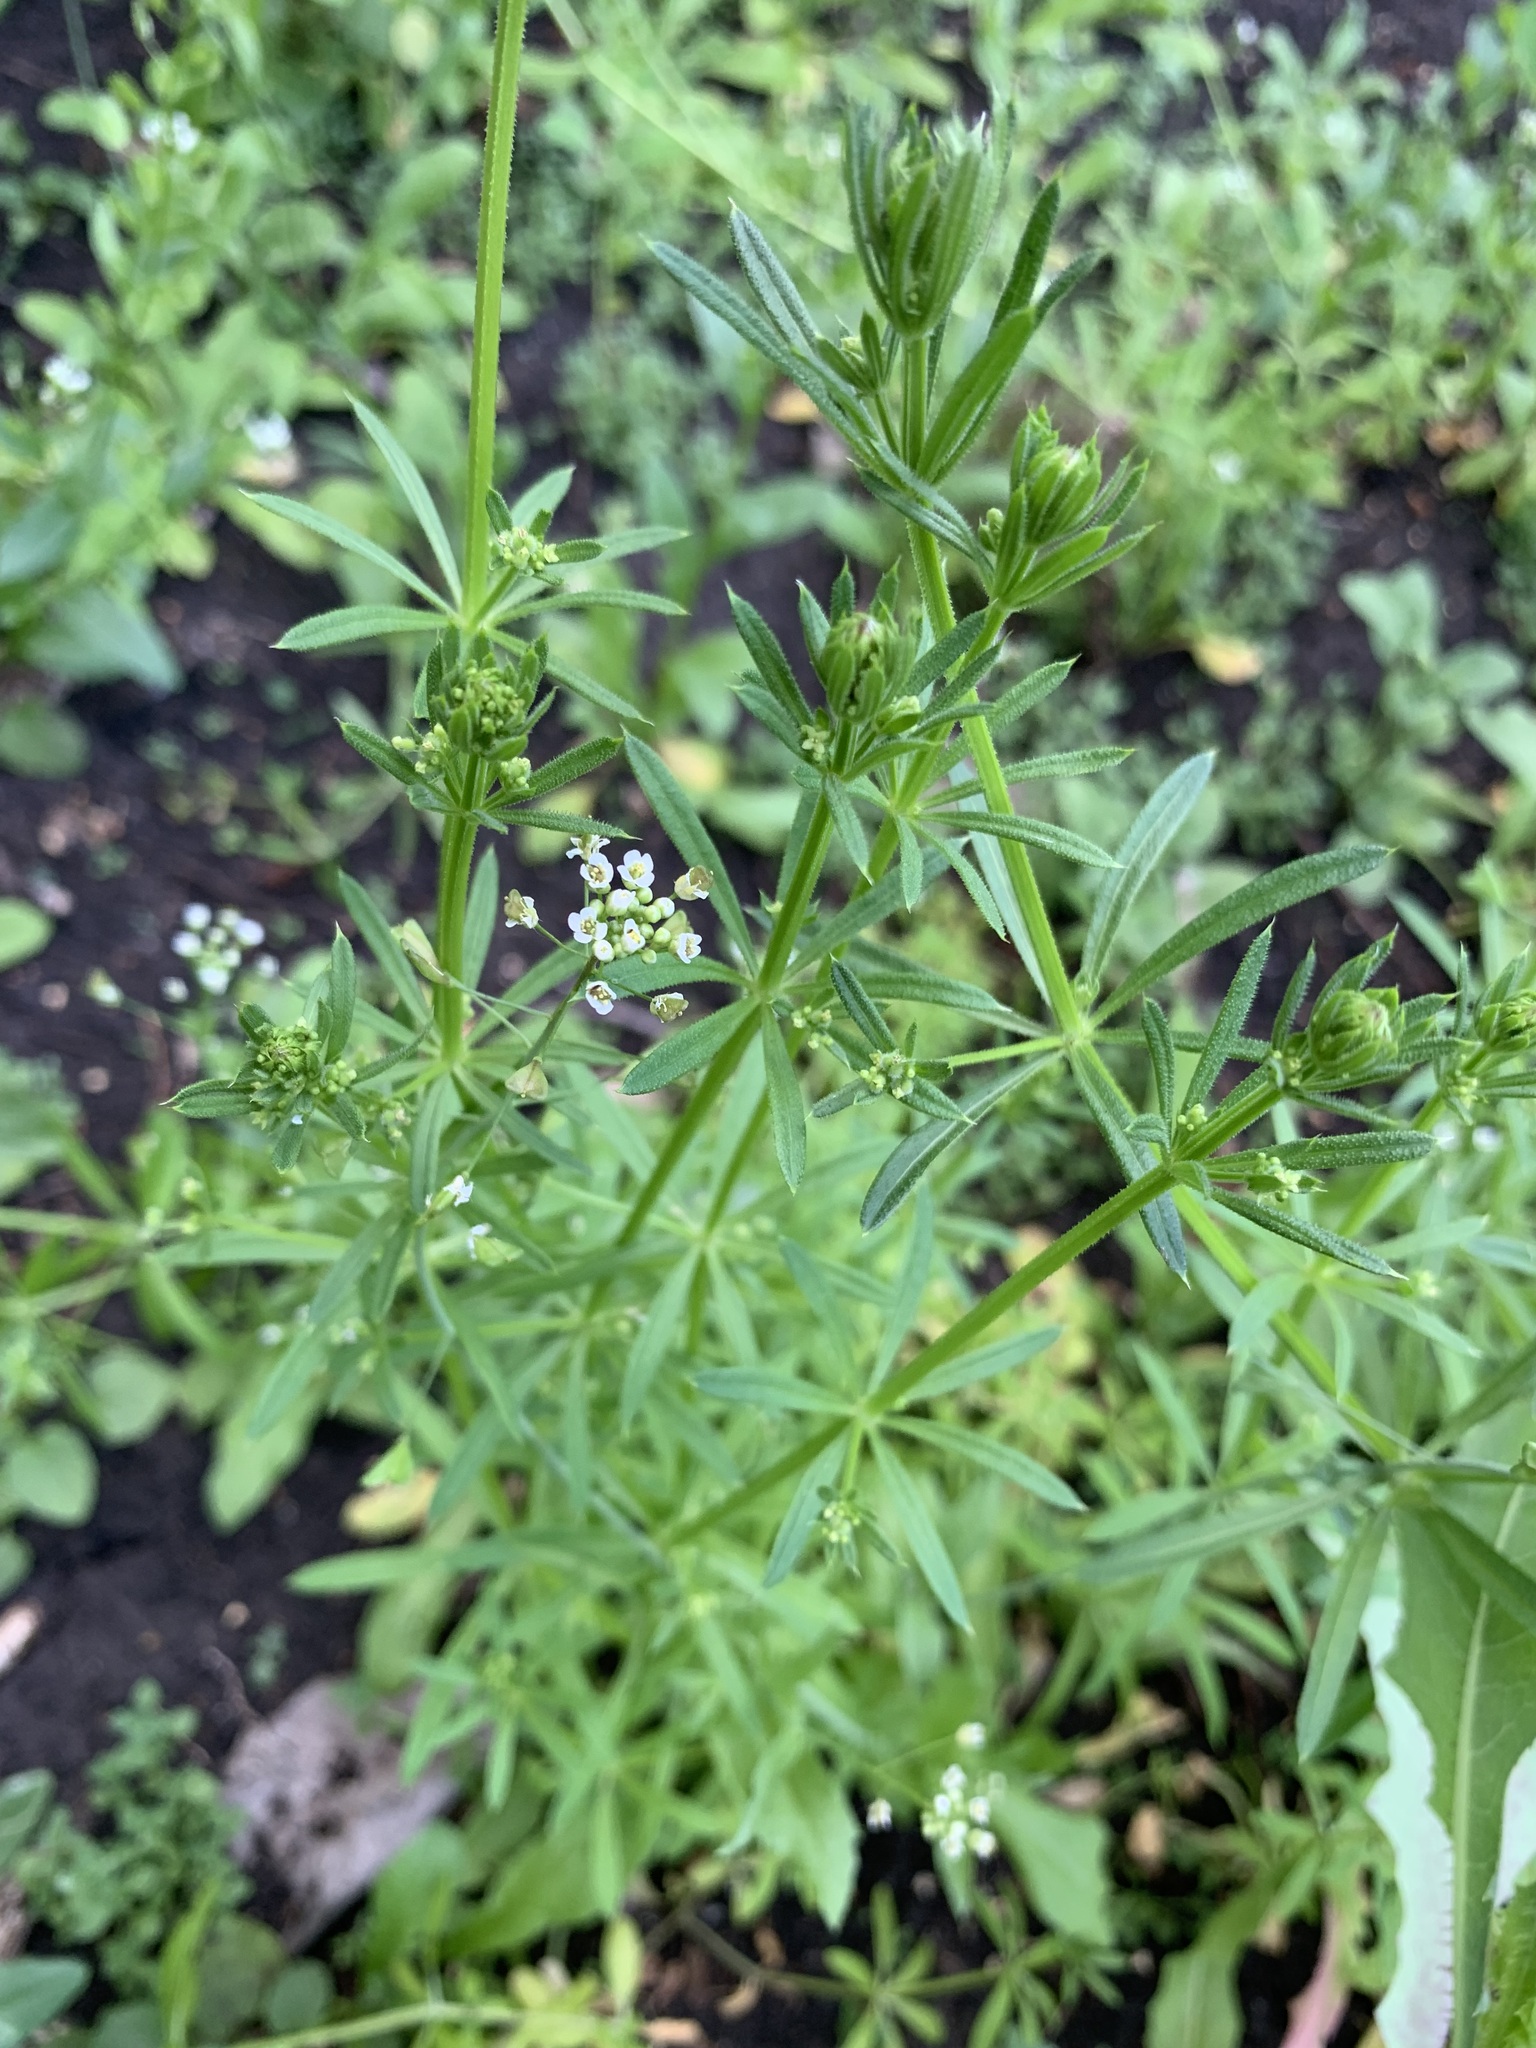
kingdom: Plantae
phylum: Tracheophyta
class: Magnoliopsida
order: Gentianales
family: Rubiaceae
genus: Galium
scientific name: Galium spurium
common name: False cleavers
